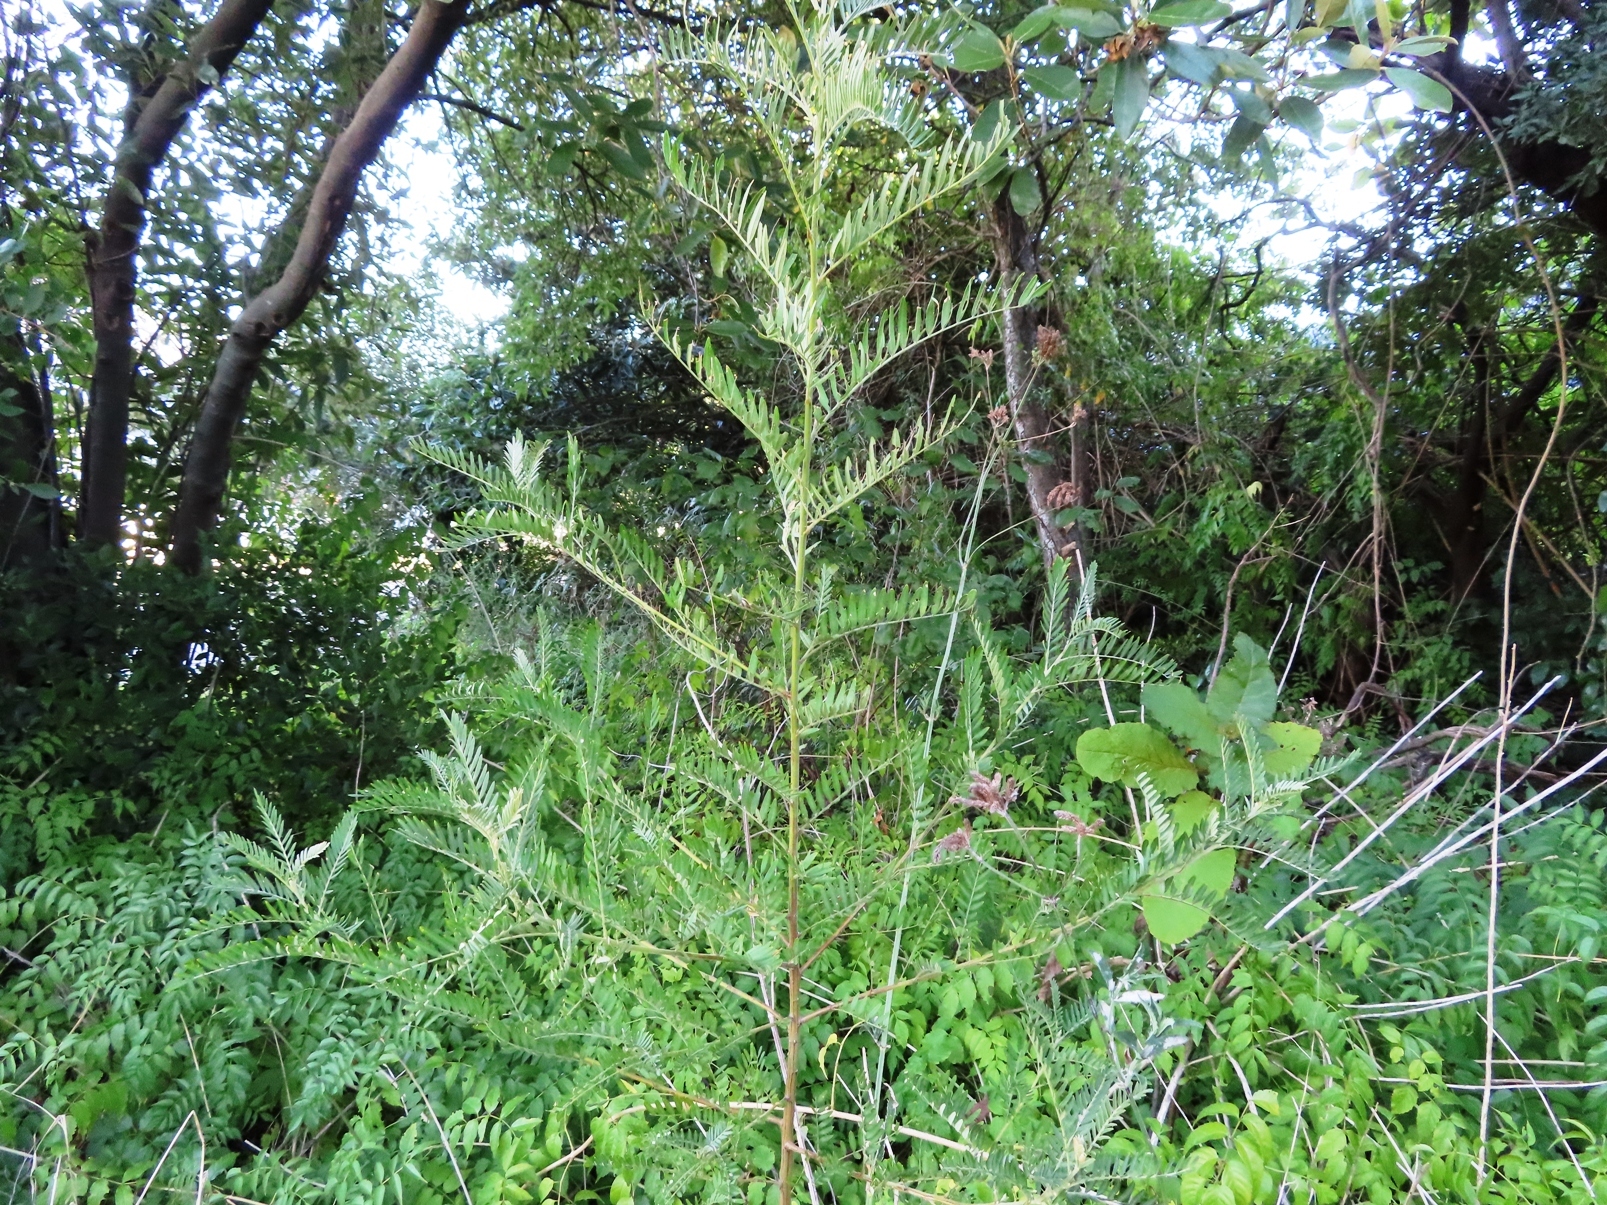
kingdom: Plantae
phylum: Tracheophyta
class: Magnoliopsida
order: Fabales
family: Fabaceae
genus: Virgilia
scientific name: Virgilia oroboides
